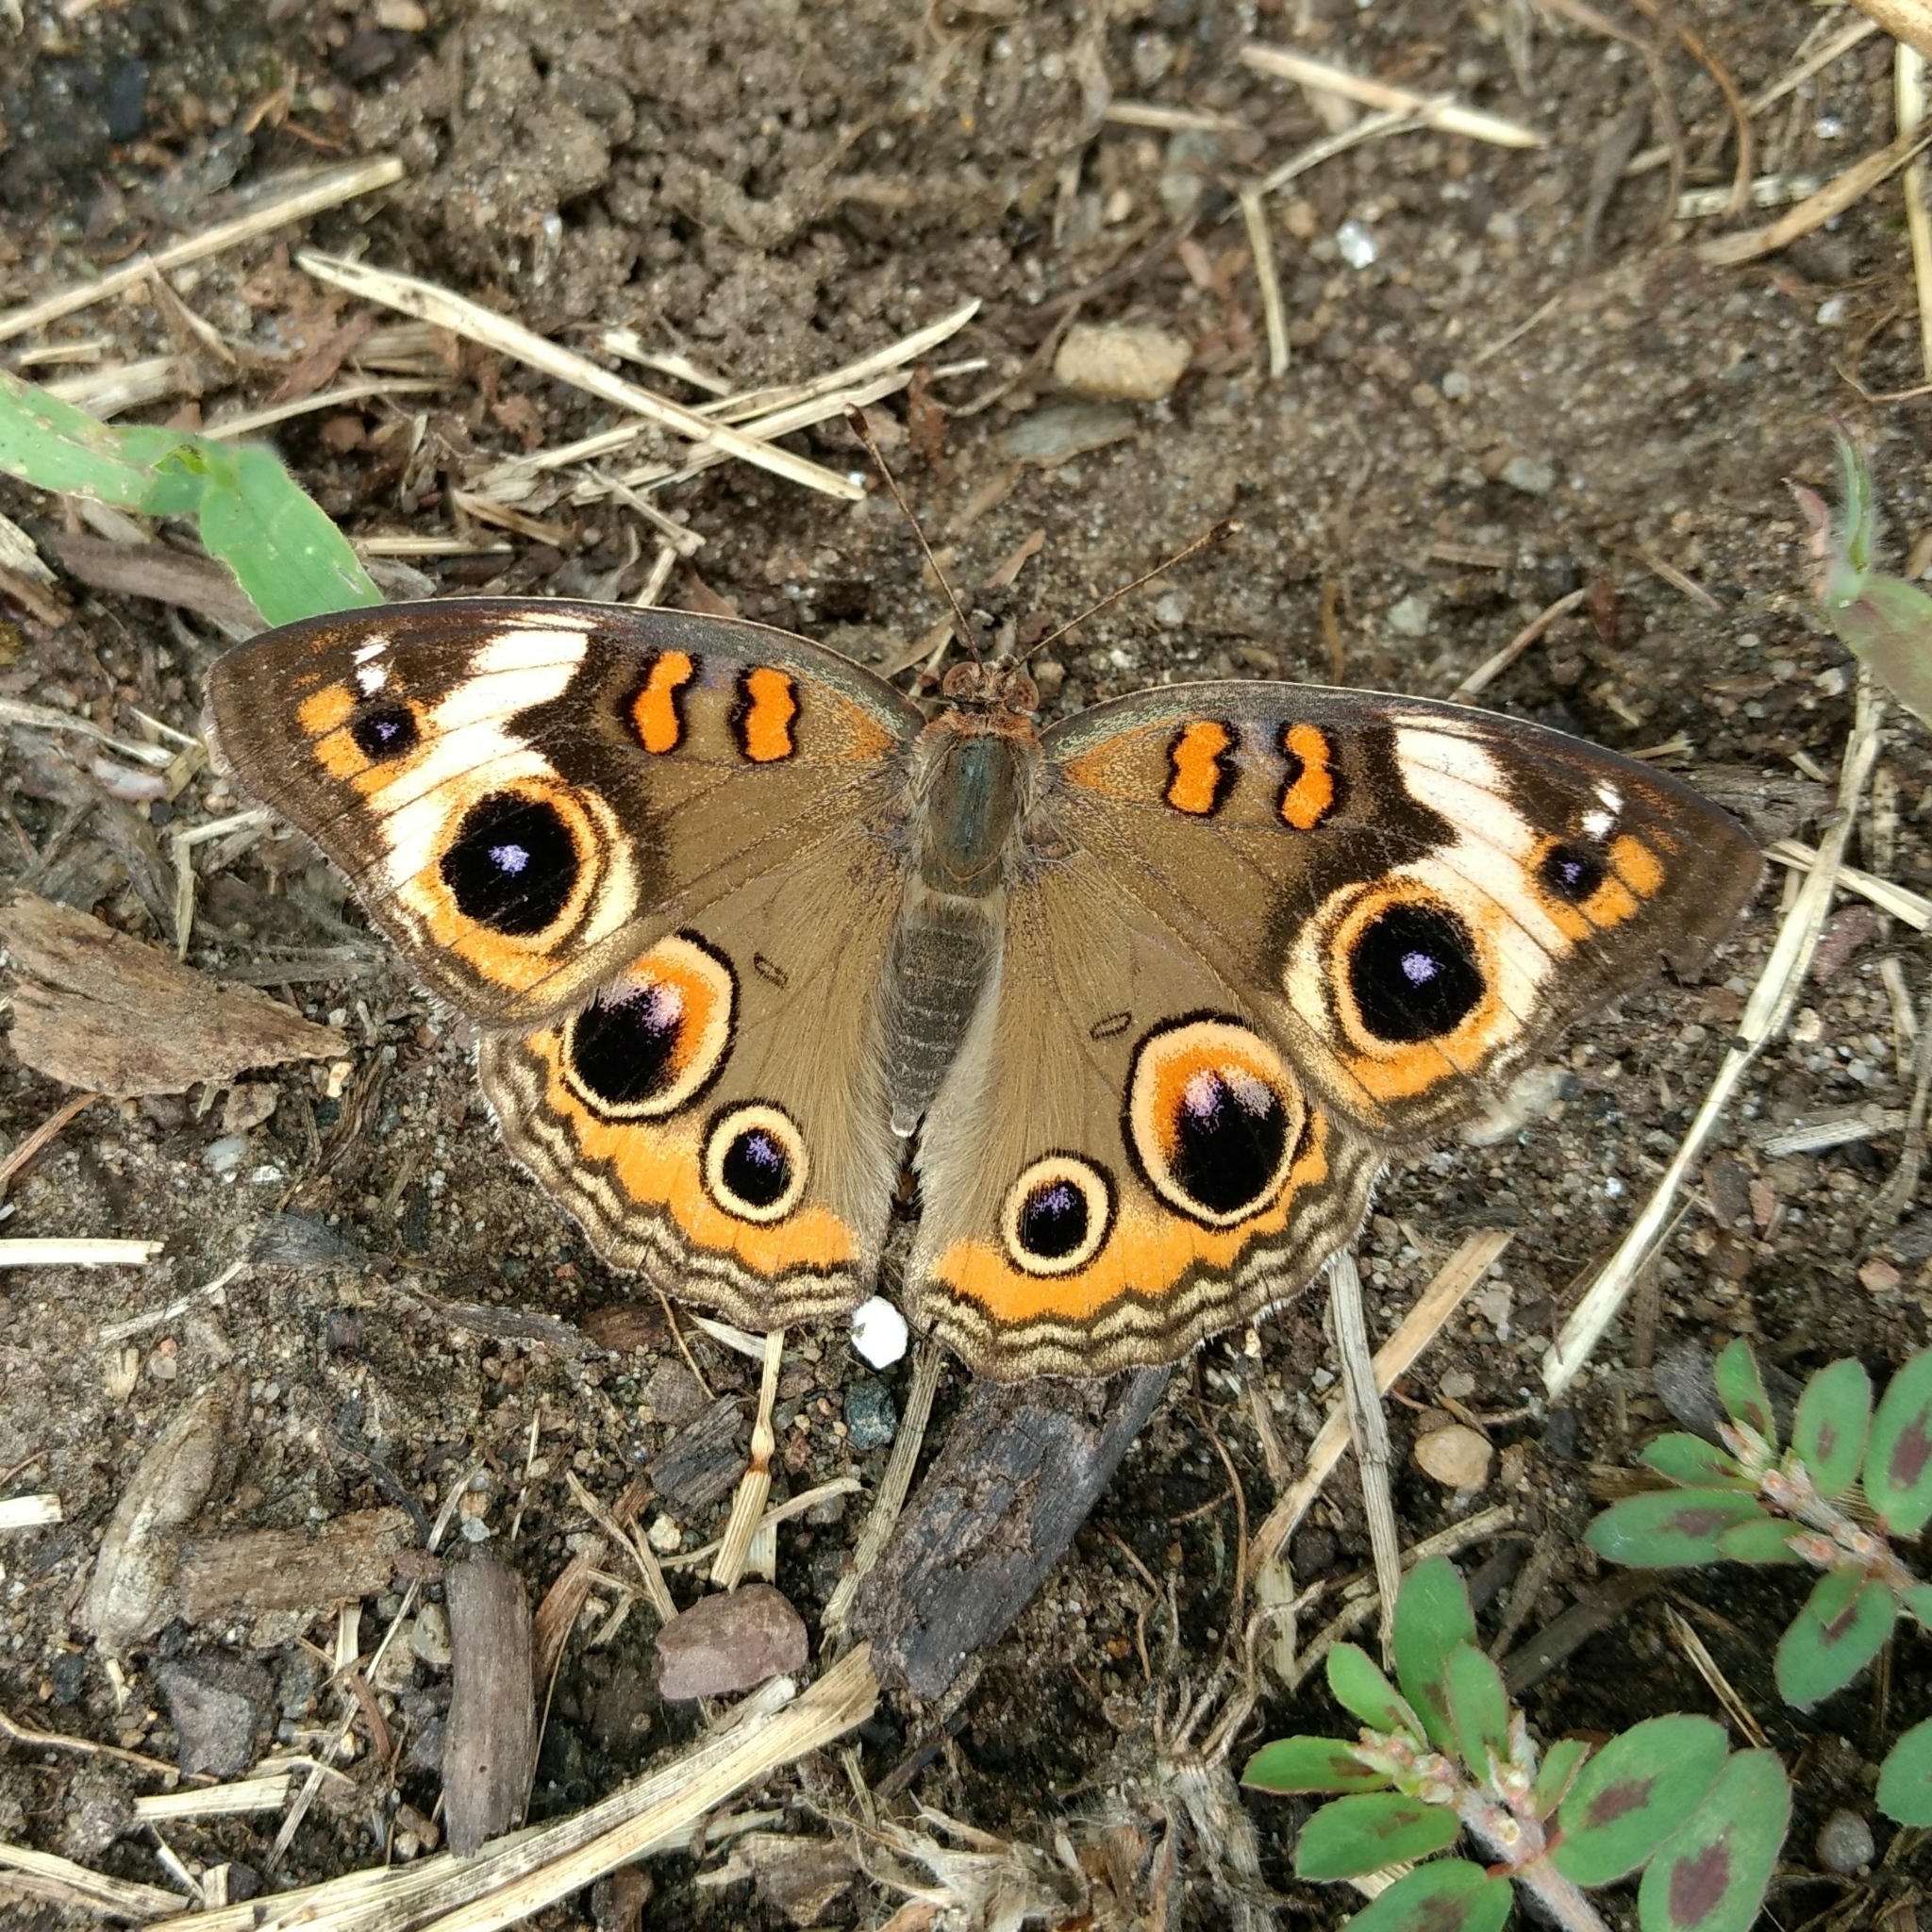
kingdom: Animalia
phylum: Arthropoda
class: Insecta
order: Lepidoptera
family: Nymphalidae
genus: Junonia
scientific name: Junonia coenia
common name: Common buckeye
